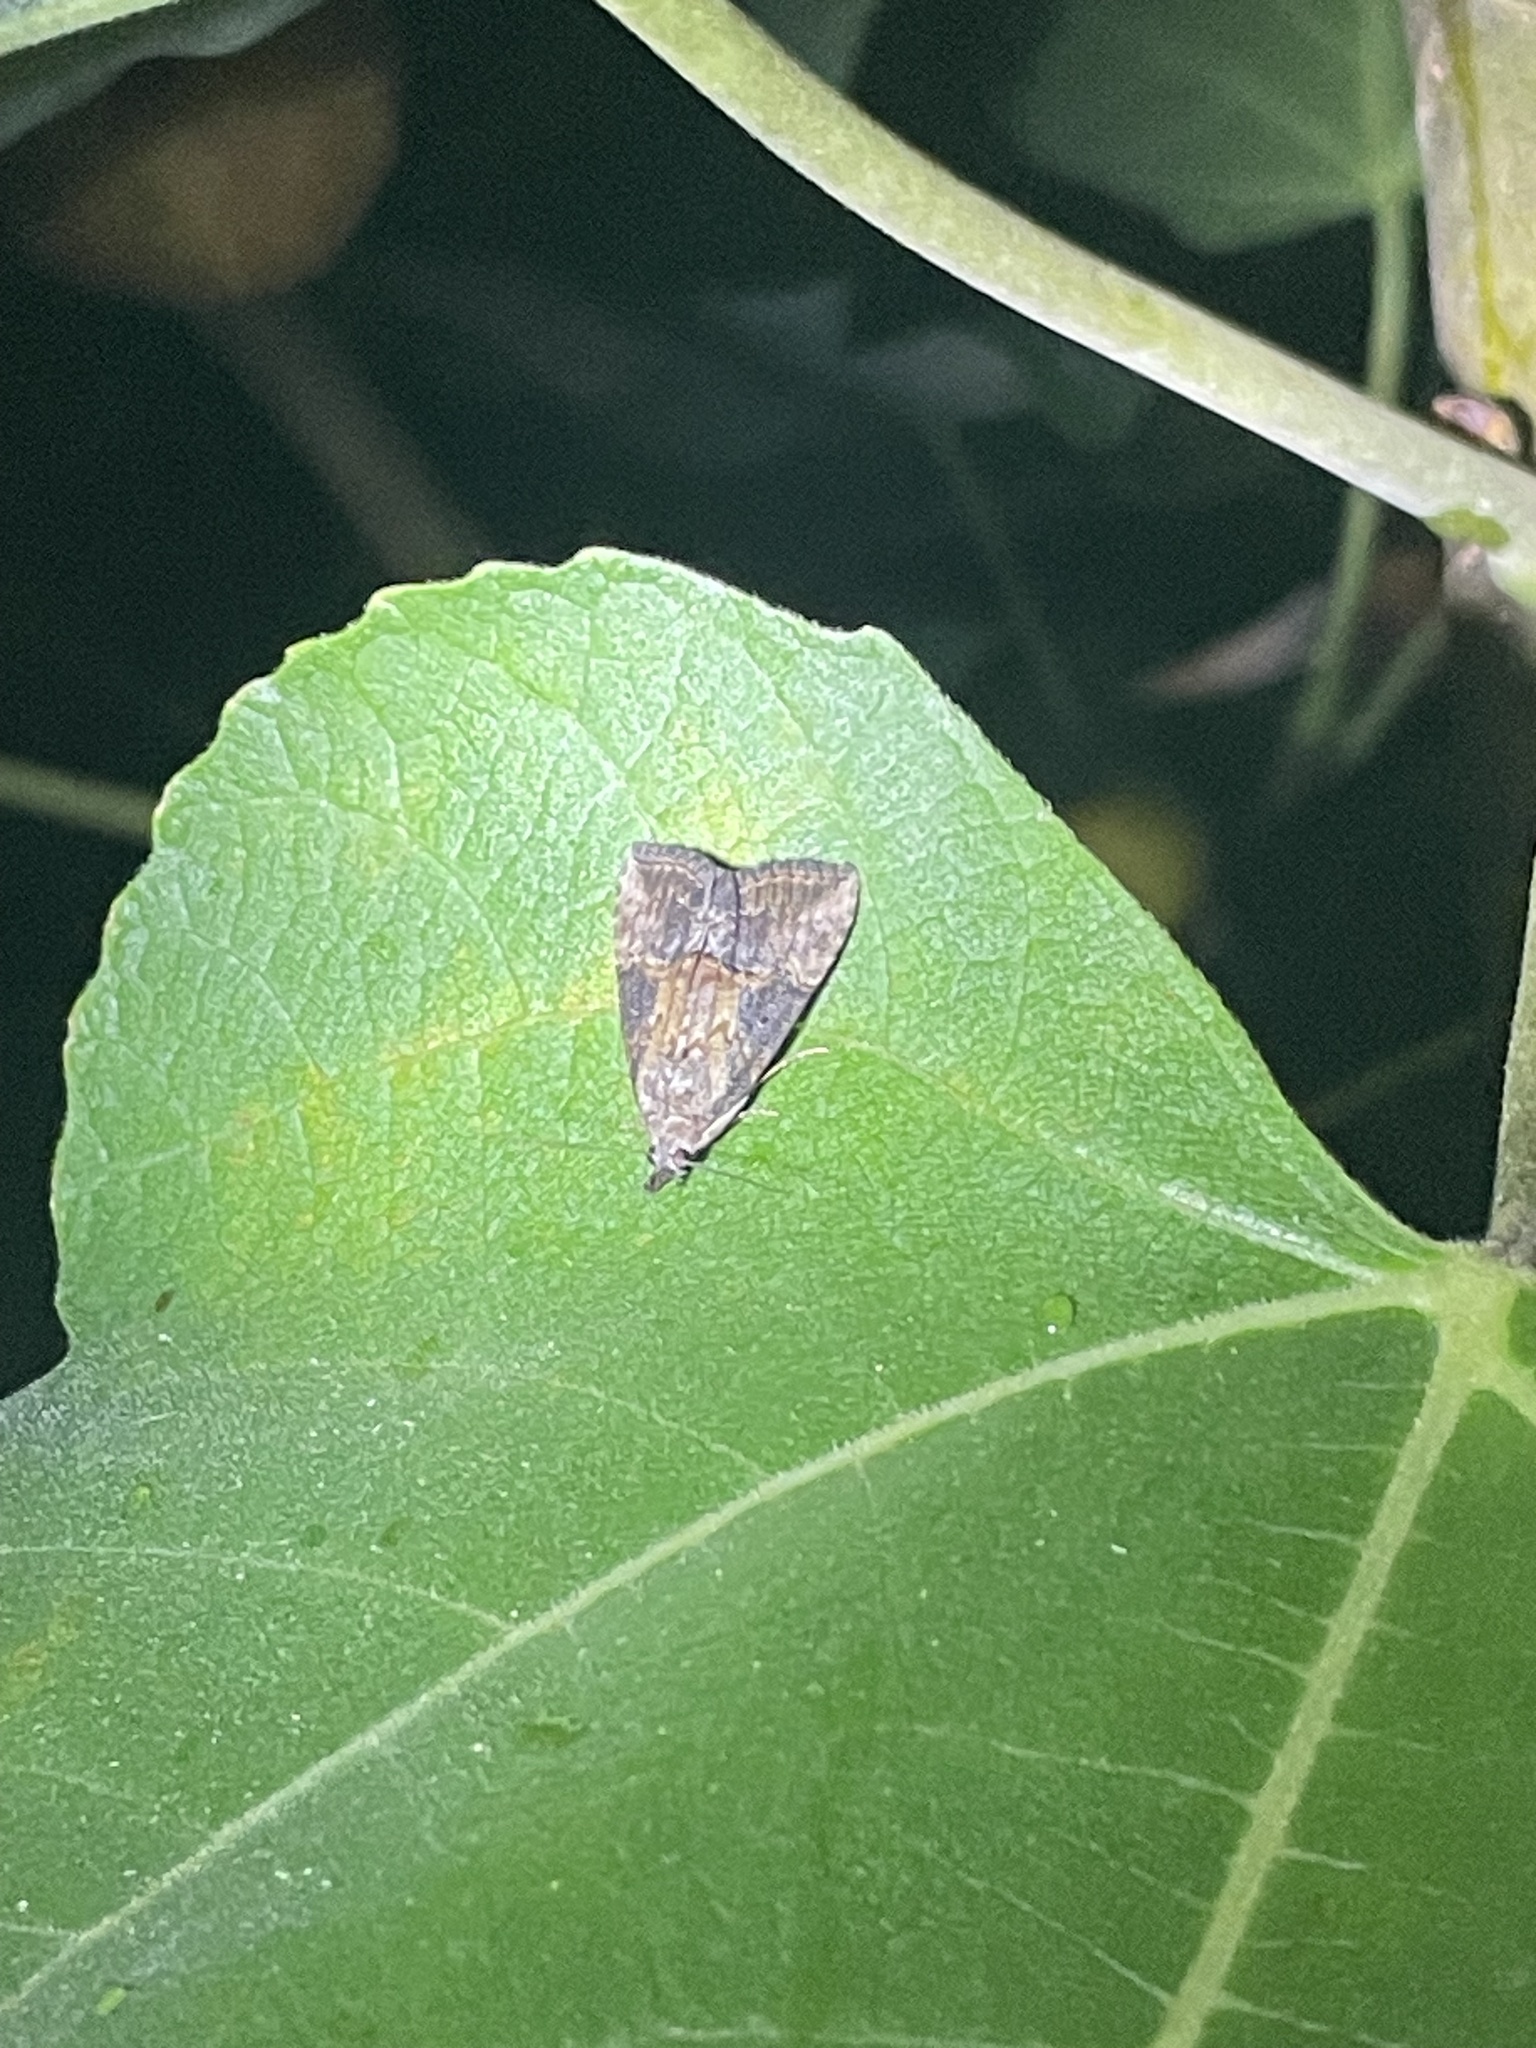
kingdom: Animalia
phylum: Arthropoda
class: Insecta
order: Lepidoptera
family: Erebidae
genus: Hypena
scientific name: Hypena scabra
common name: Green cloverworm
